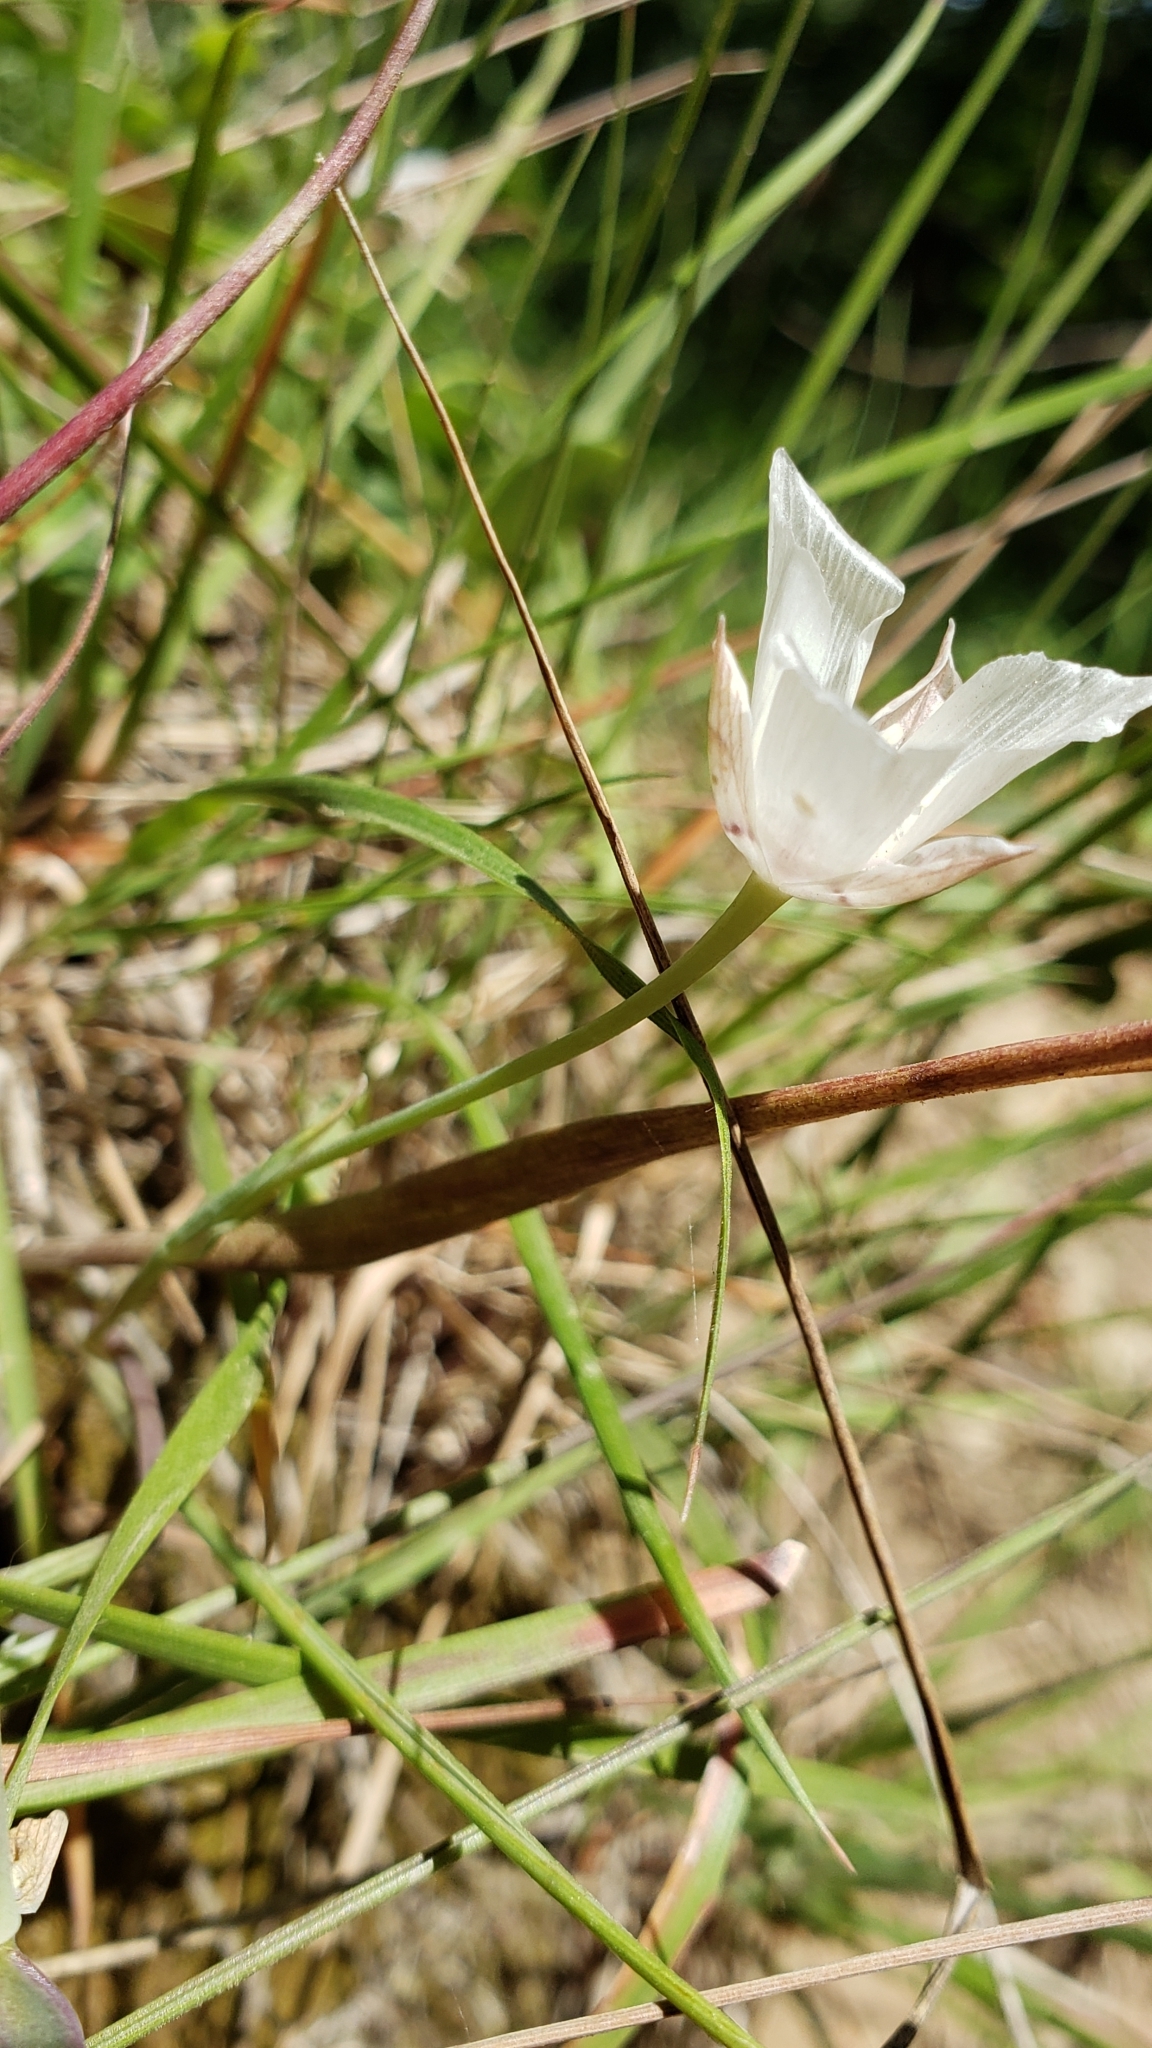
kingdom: Plantae
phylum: Tracheophyta
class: Liliopsida
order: Liliales
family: Liliaceae
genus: Calochortus
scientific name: Calochortus umbellatus
